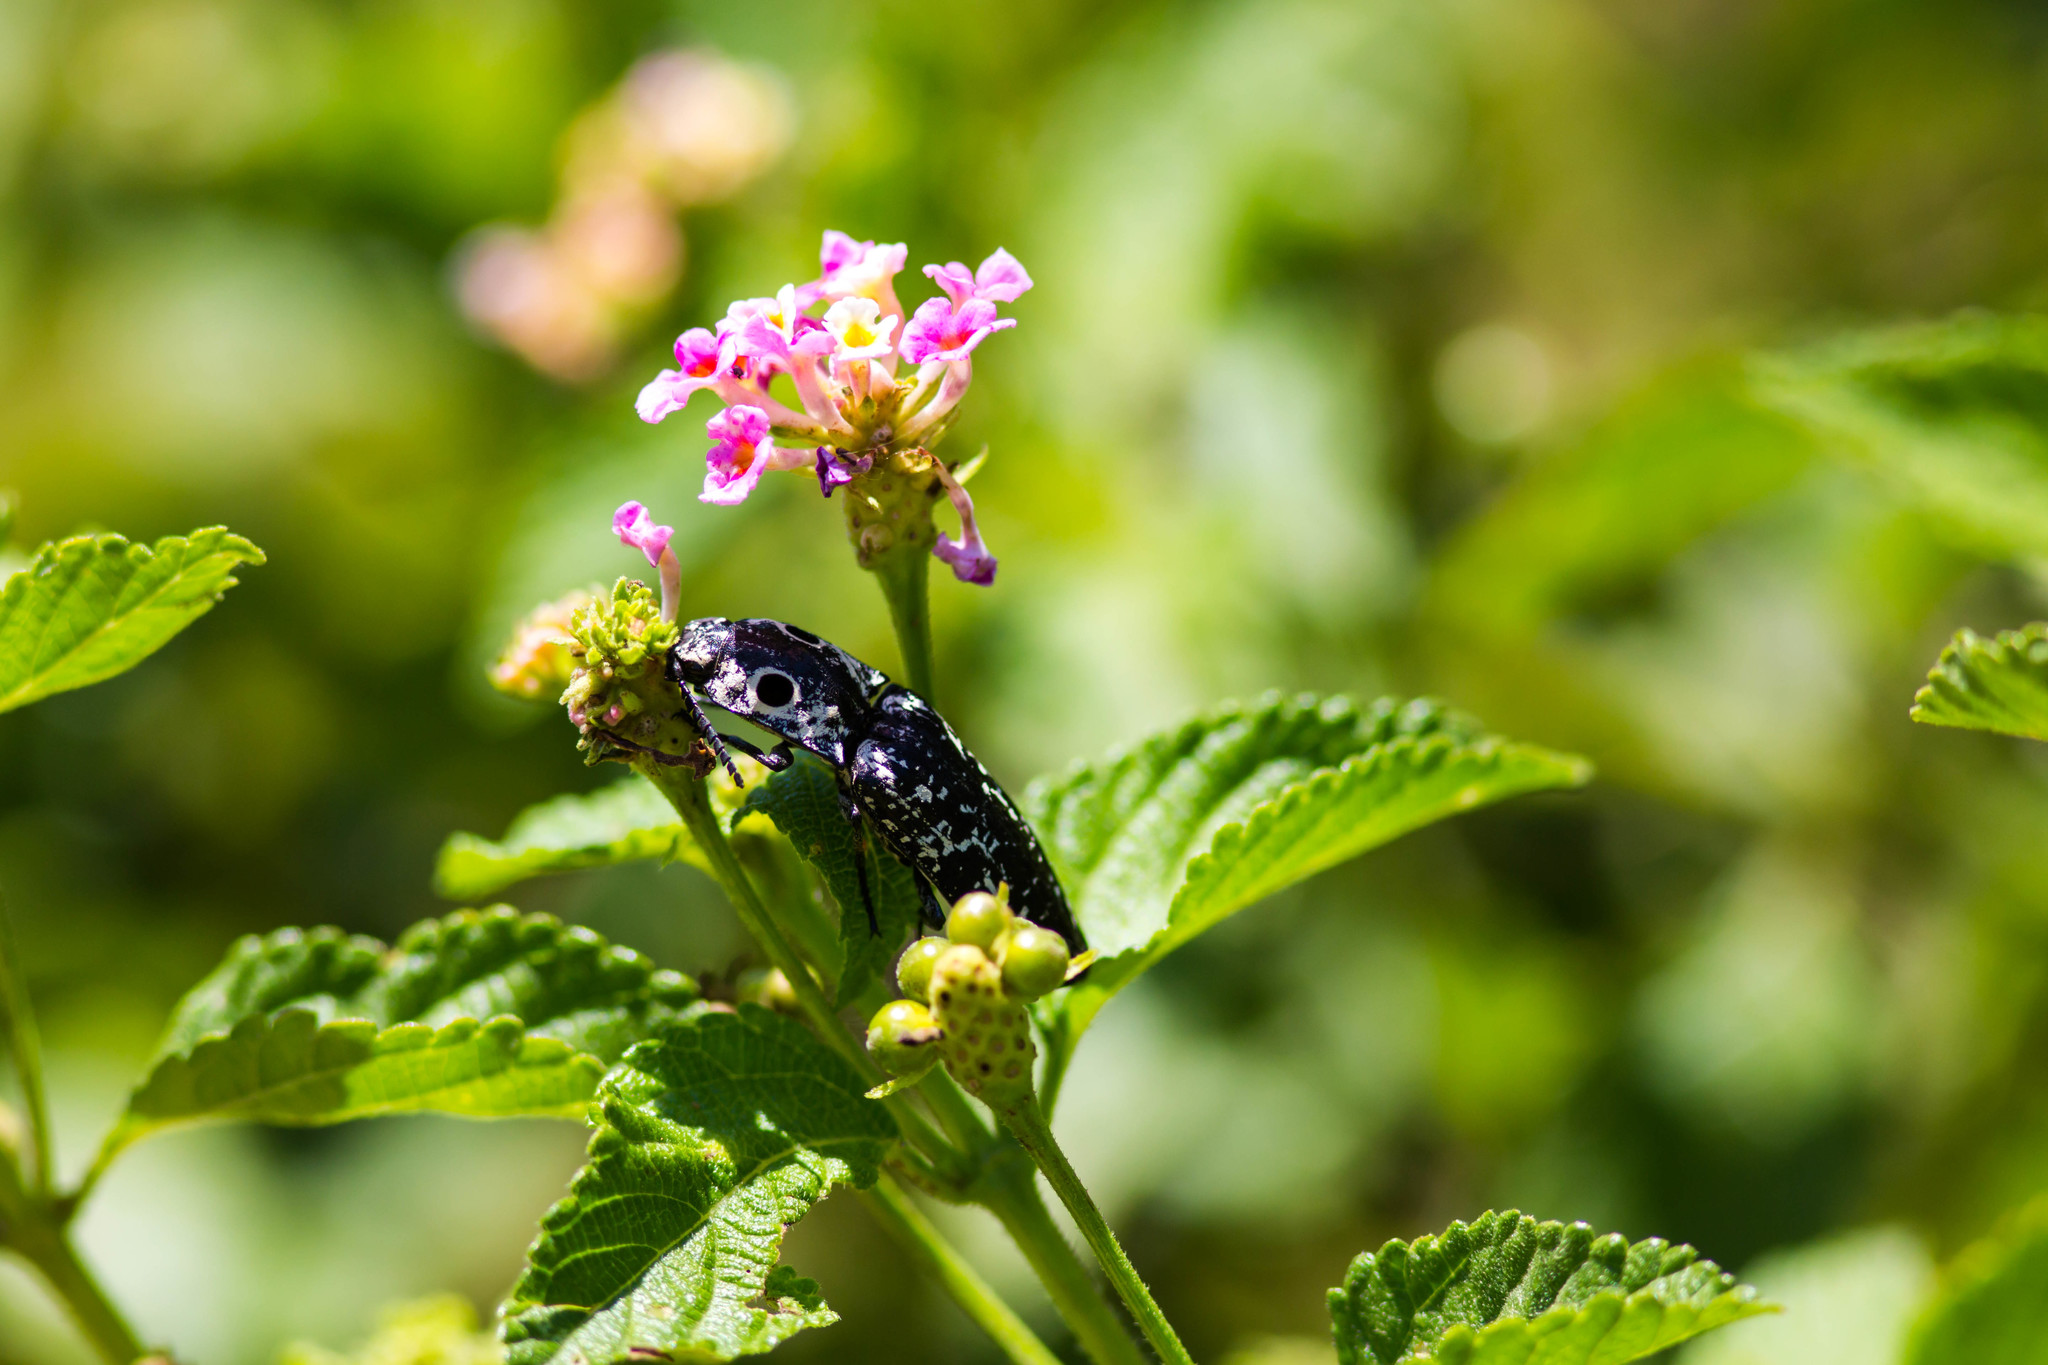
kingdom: Animalia
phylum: Arthropoda
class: Insecta
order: Coleoptera
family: Elateridae
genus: Alaus
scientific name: Alaus
